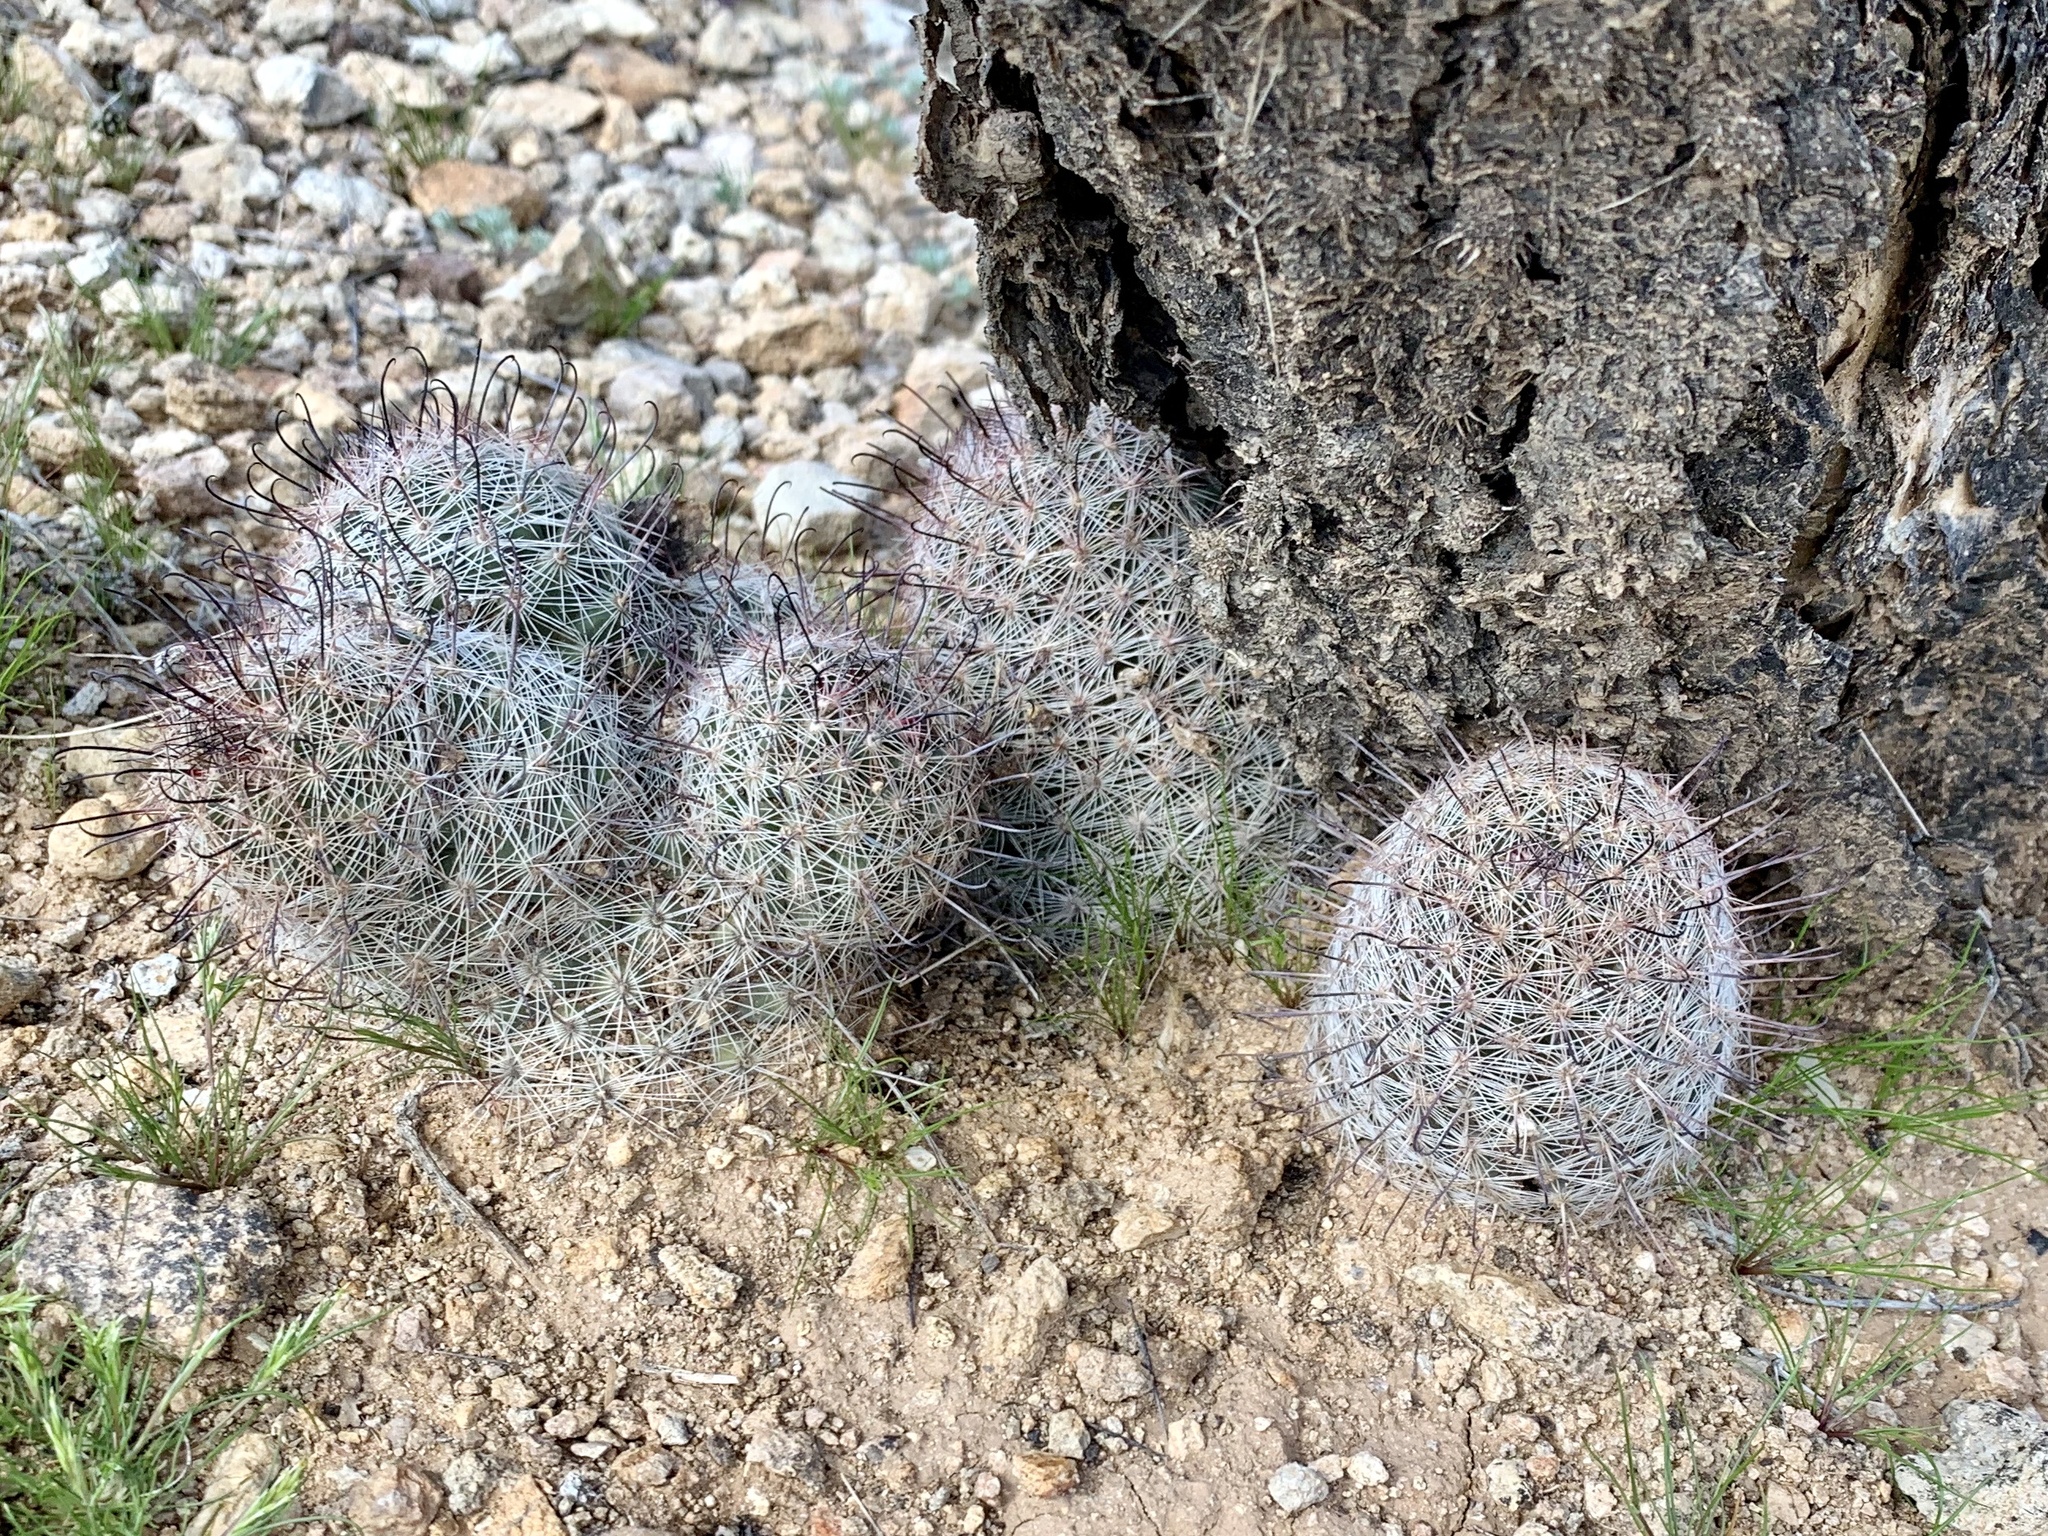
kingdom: Plantae
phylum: Tracheophyta
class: Magnoliopsida
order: Caryophyllales
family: Cactaceae
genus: Cochemiea
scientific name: Cochemiea grahamii
